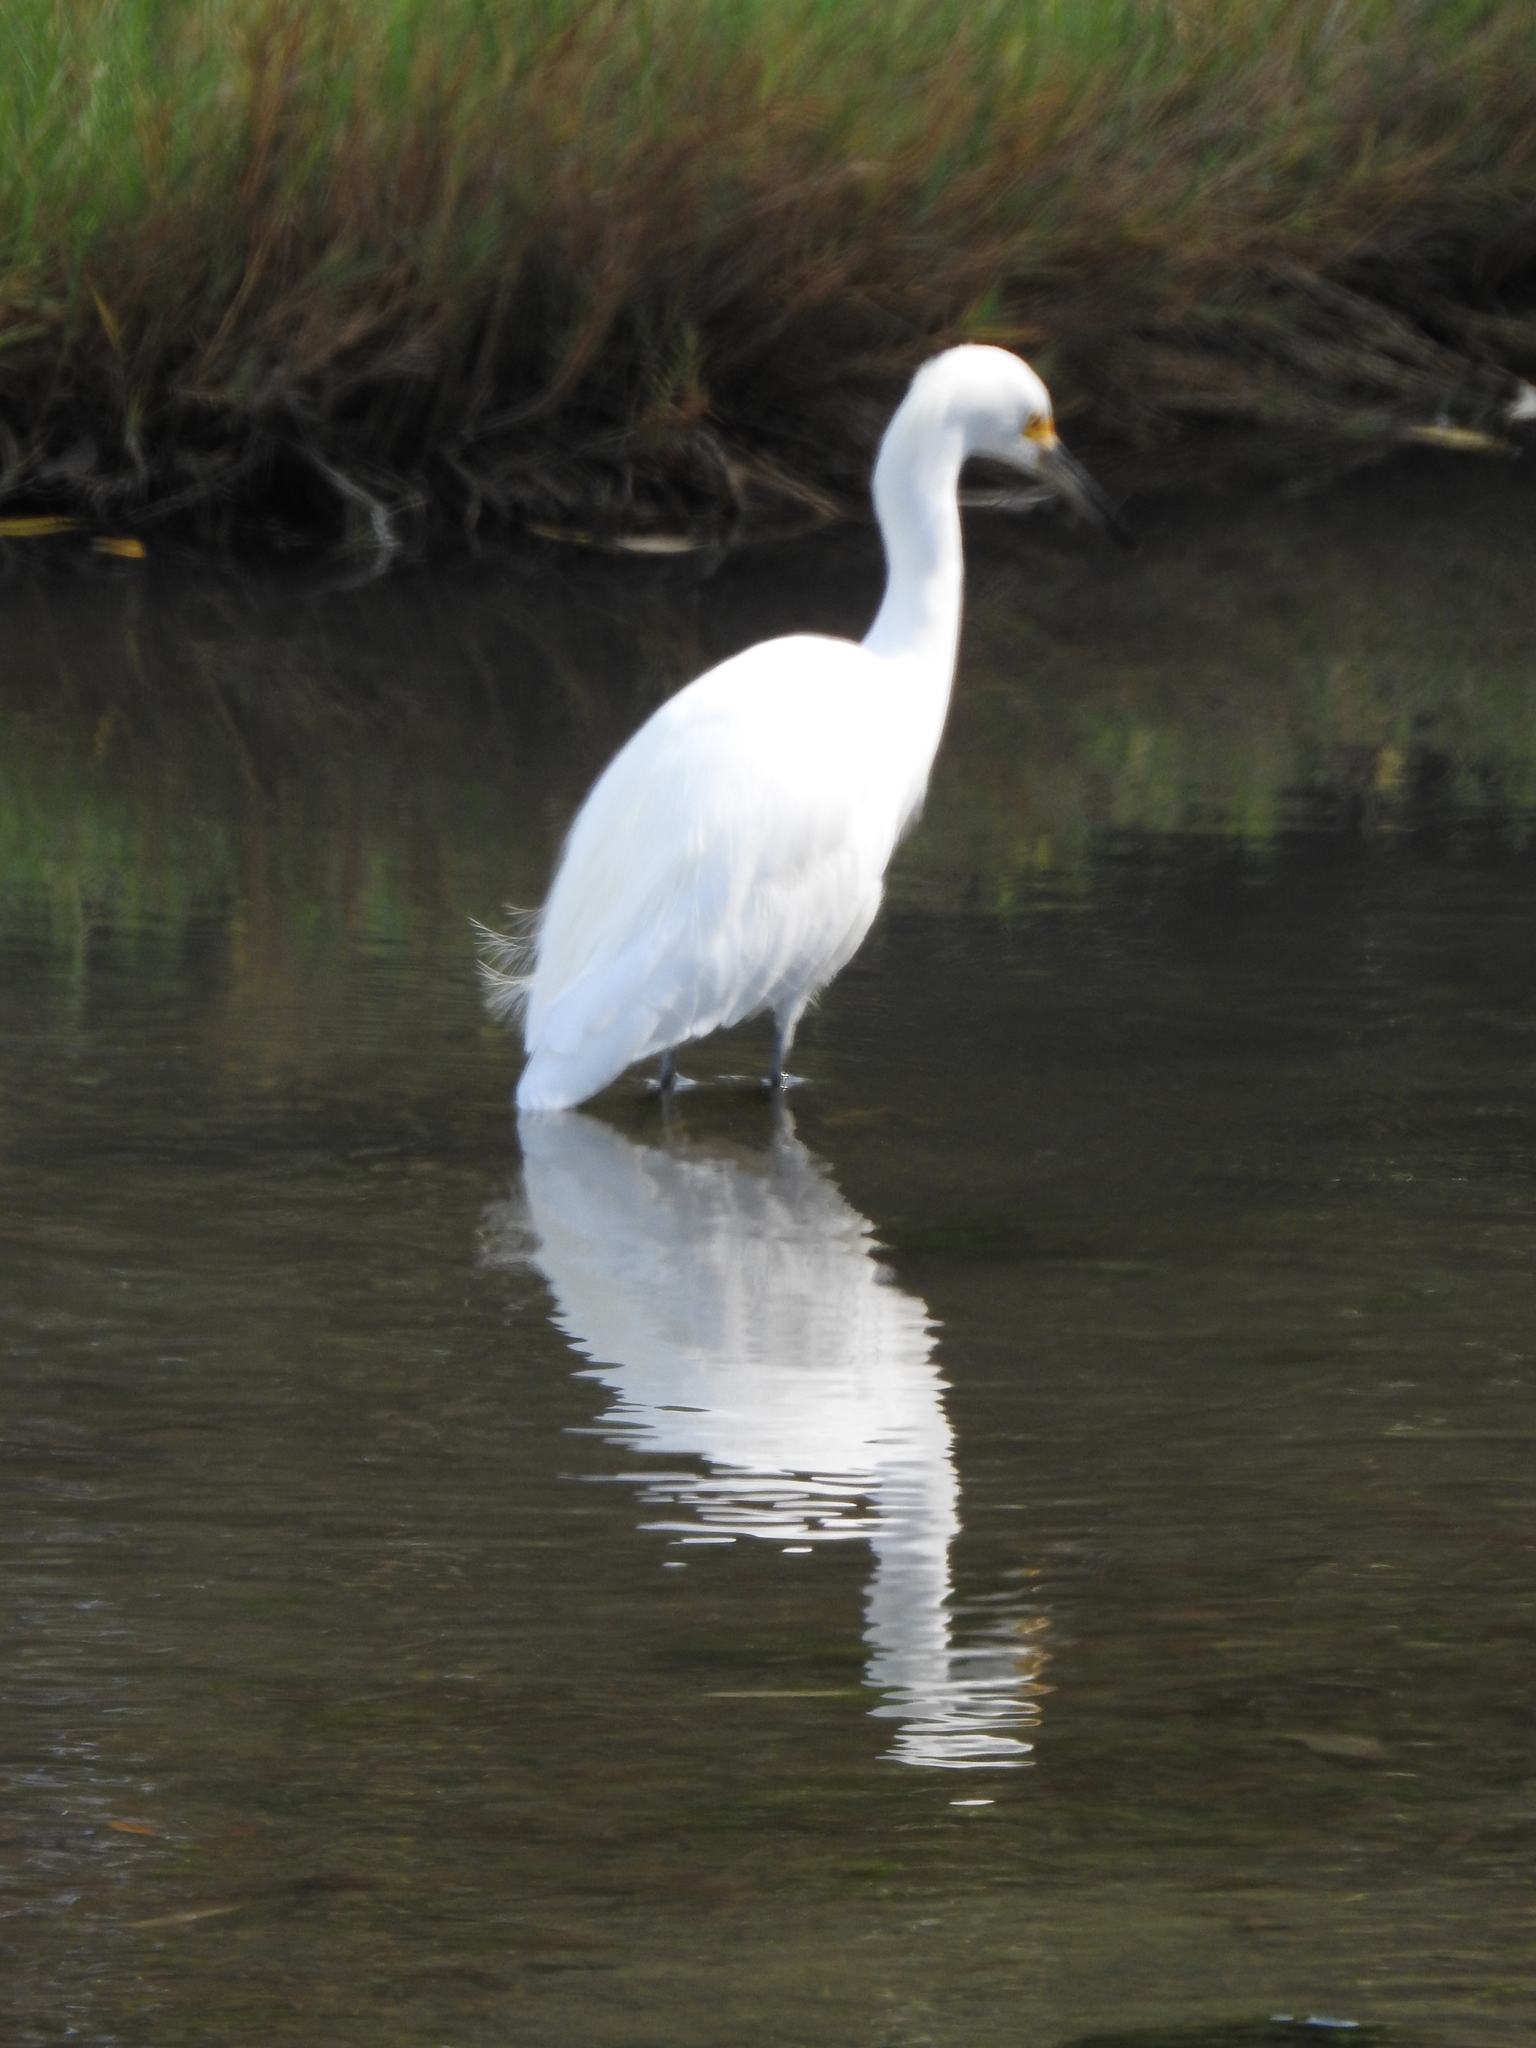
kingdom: Animalia
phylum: Chordata
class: Aves
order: Pelecaniformes
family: Ardeidae
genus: Egretta
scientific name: Egretta thula
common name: Snowy egret
